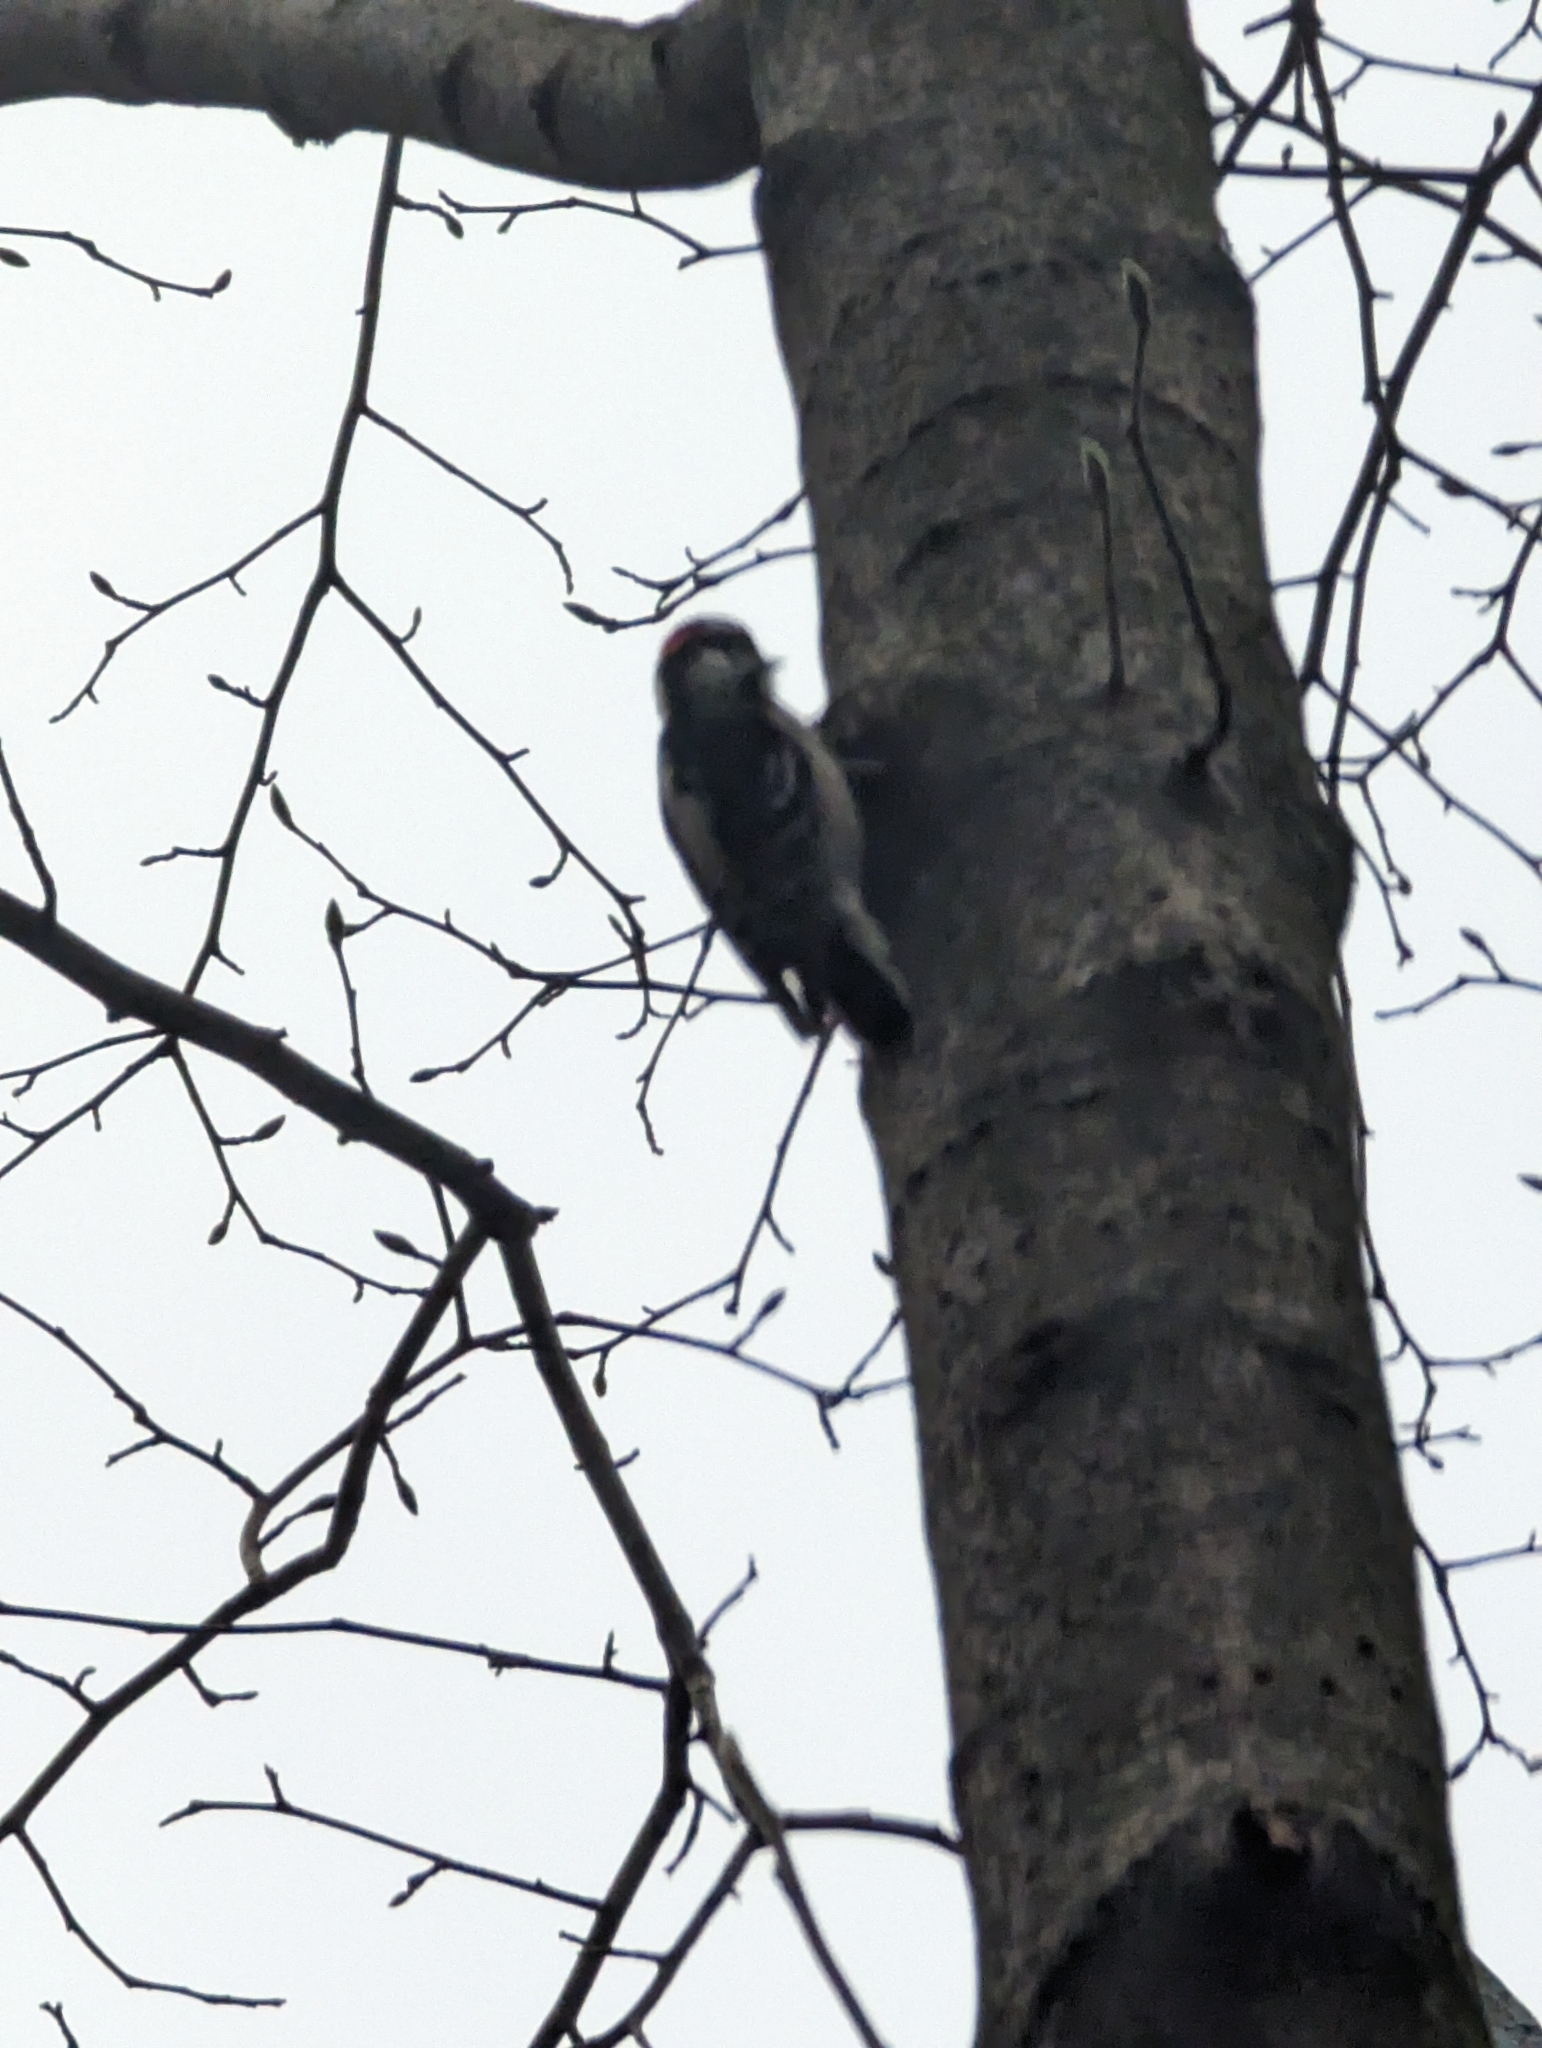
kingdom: Animalia
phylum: Chordata
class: Aves
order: Piciformes
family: Picidae
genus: Dryobates
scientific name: Dryobates pubescens
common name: Downy woodpecker
